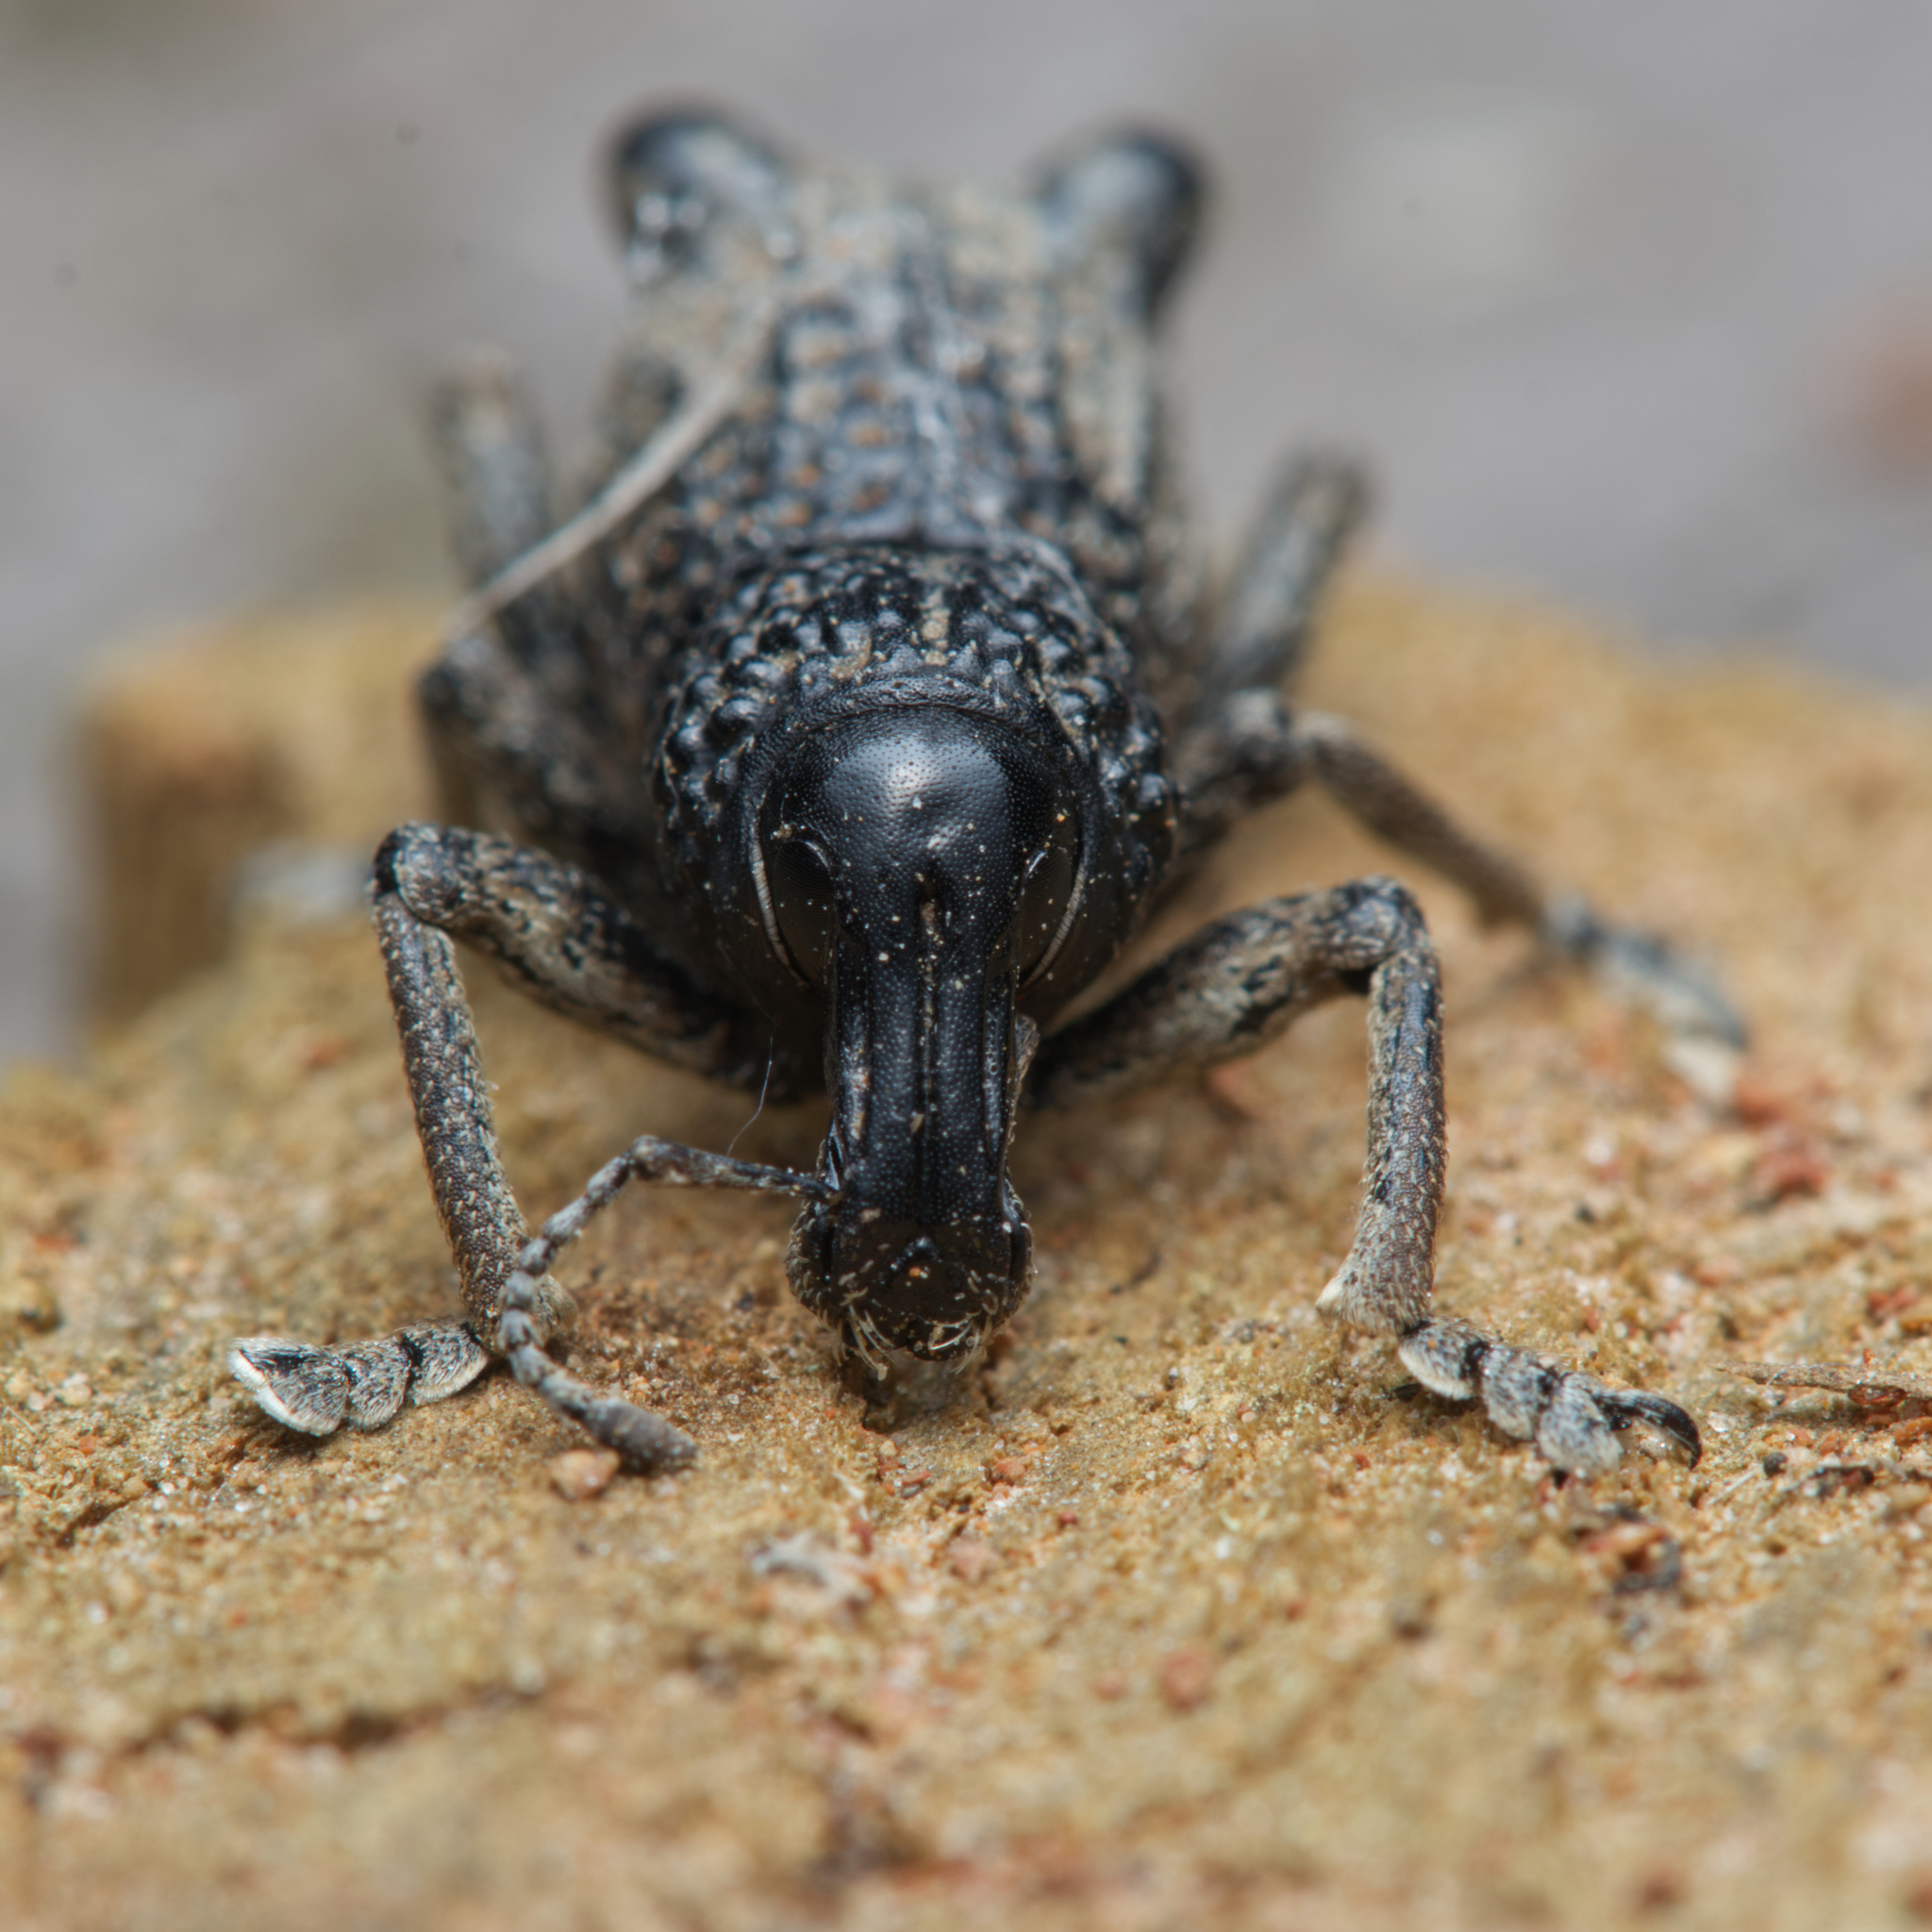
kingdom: Animalia
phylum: Arthropoda
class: Insecta
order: Coleoptera
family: Curculionidae
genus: Zymaus
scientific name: Zymaus binodosus
